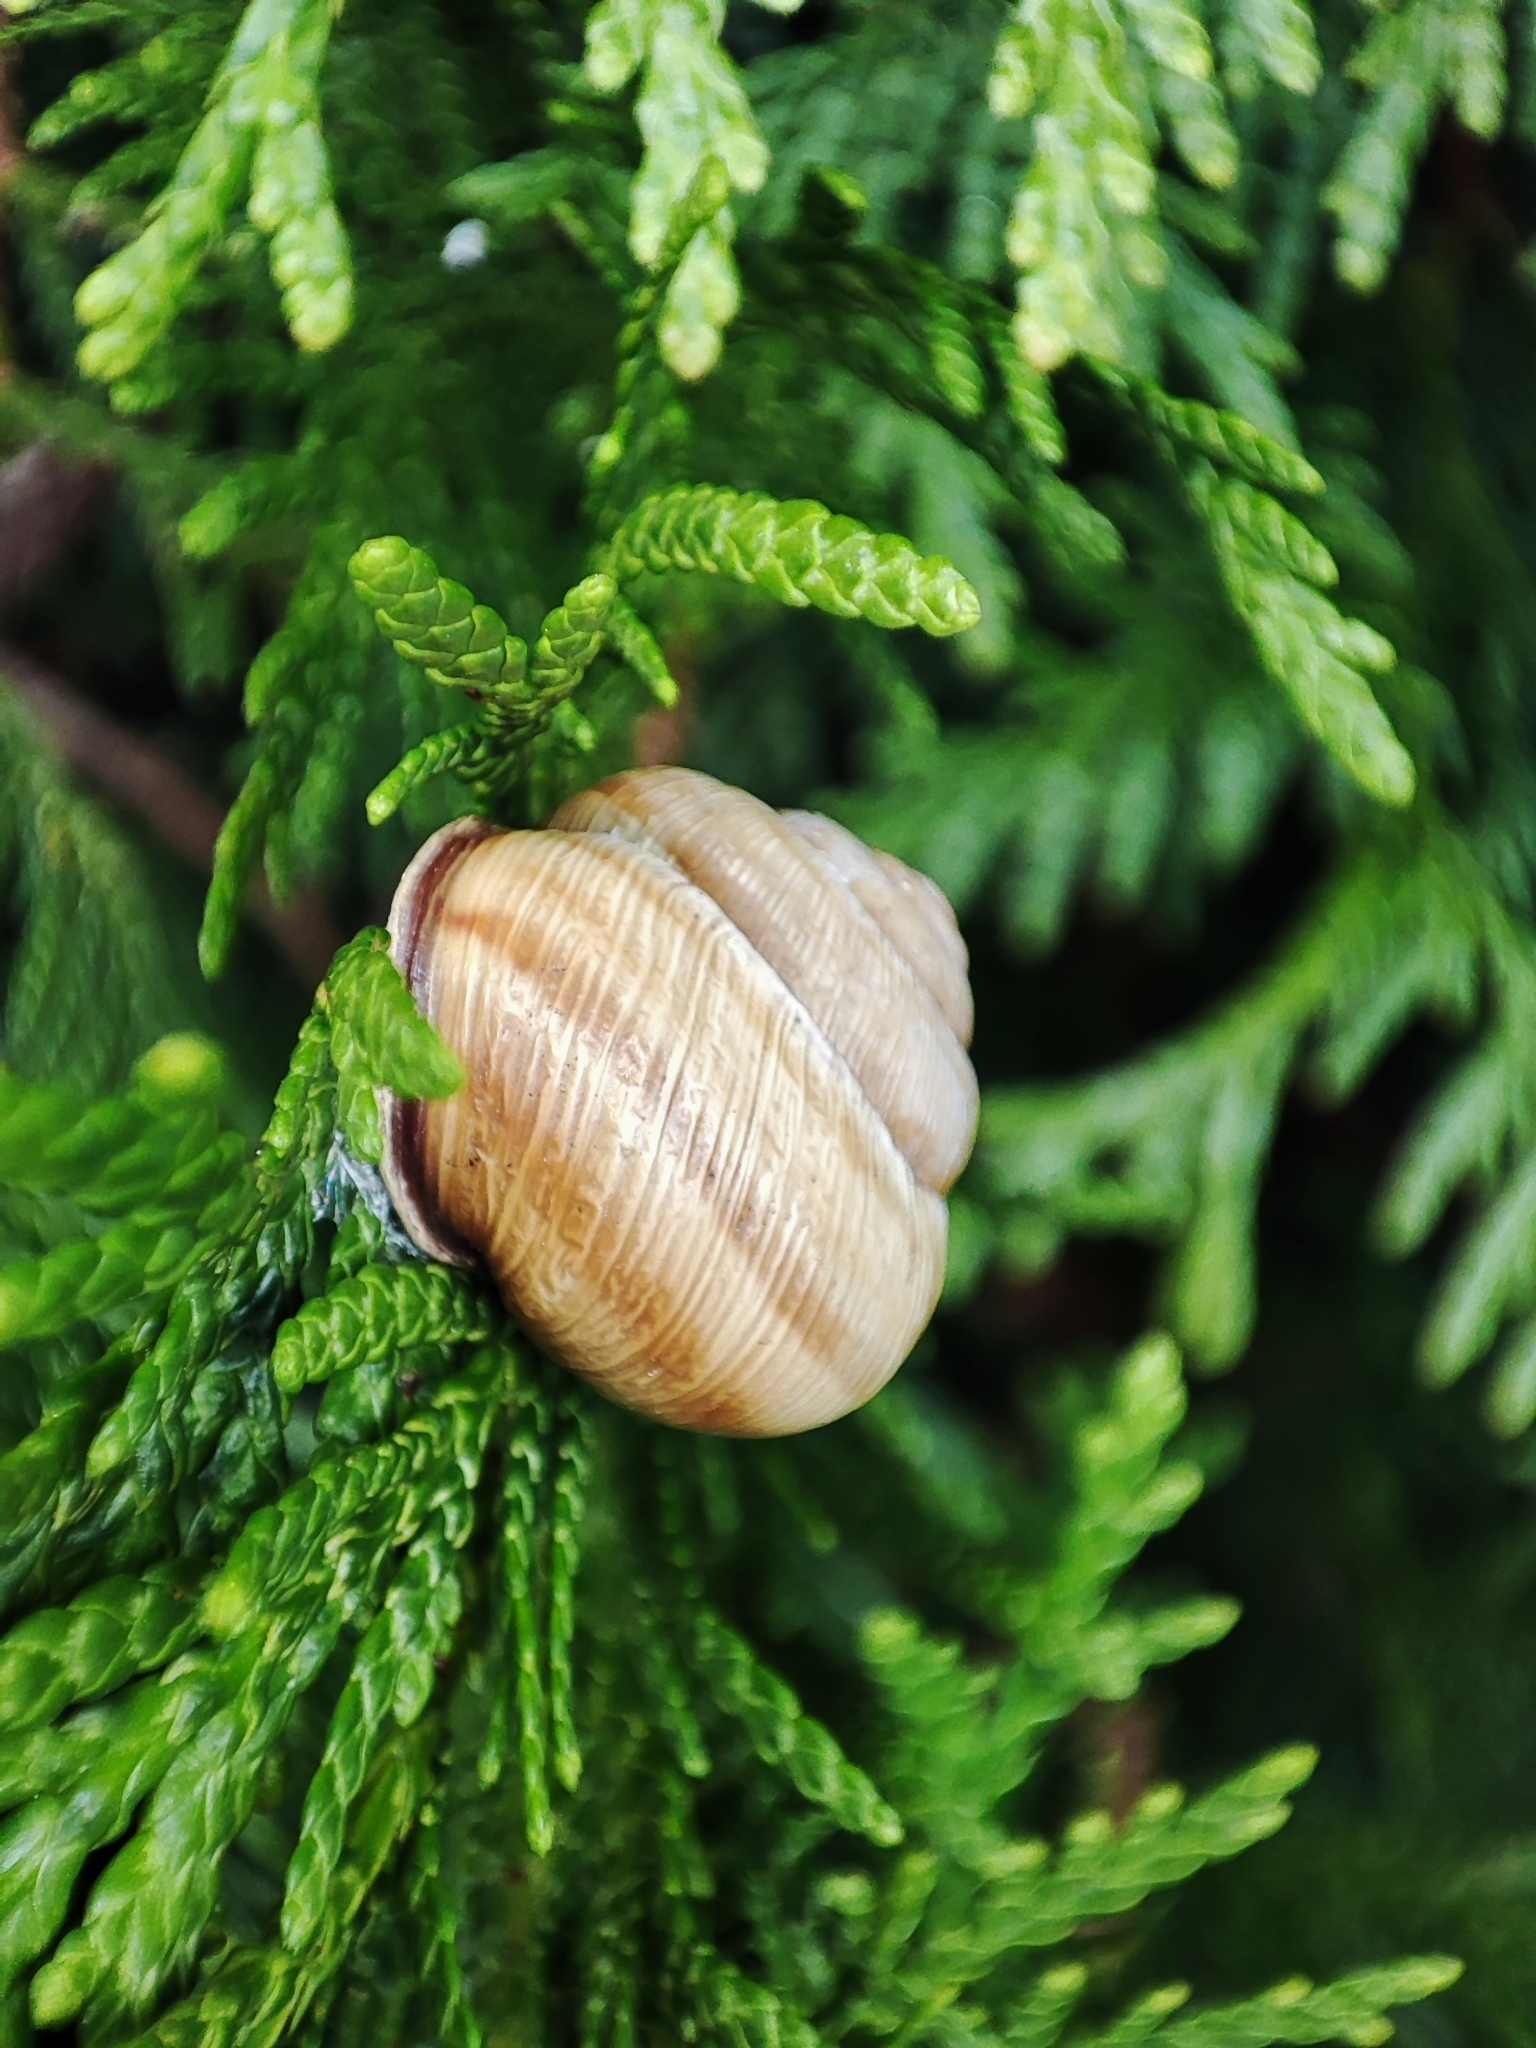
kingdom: Animalia
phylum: Mollusca
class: Gastropoda
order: Stylommatophora
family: Helicidae
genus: Caucasotachea
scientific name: Caucasotachea vindobonensis
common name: European helicid land snail
